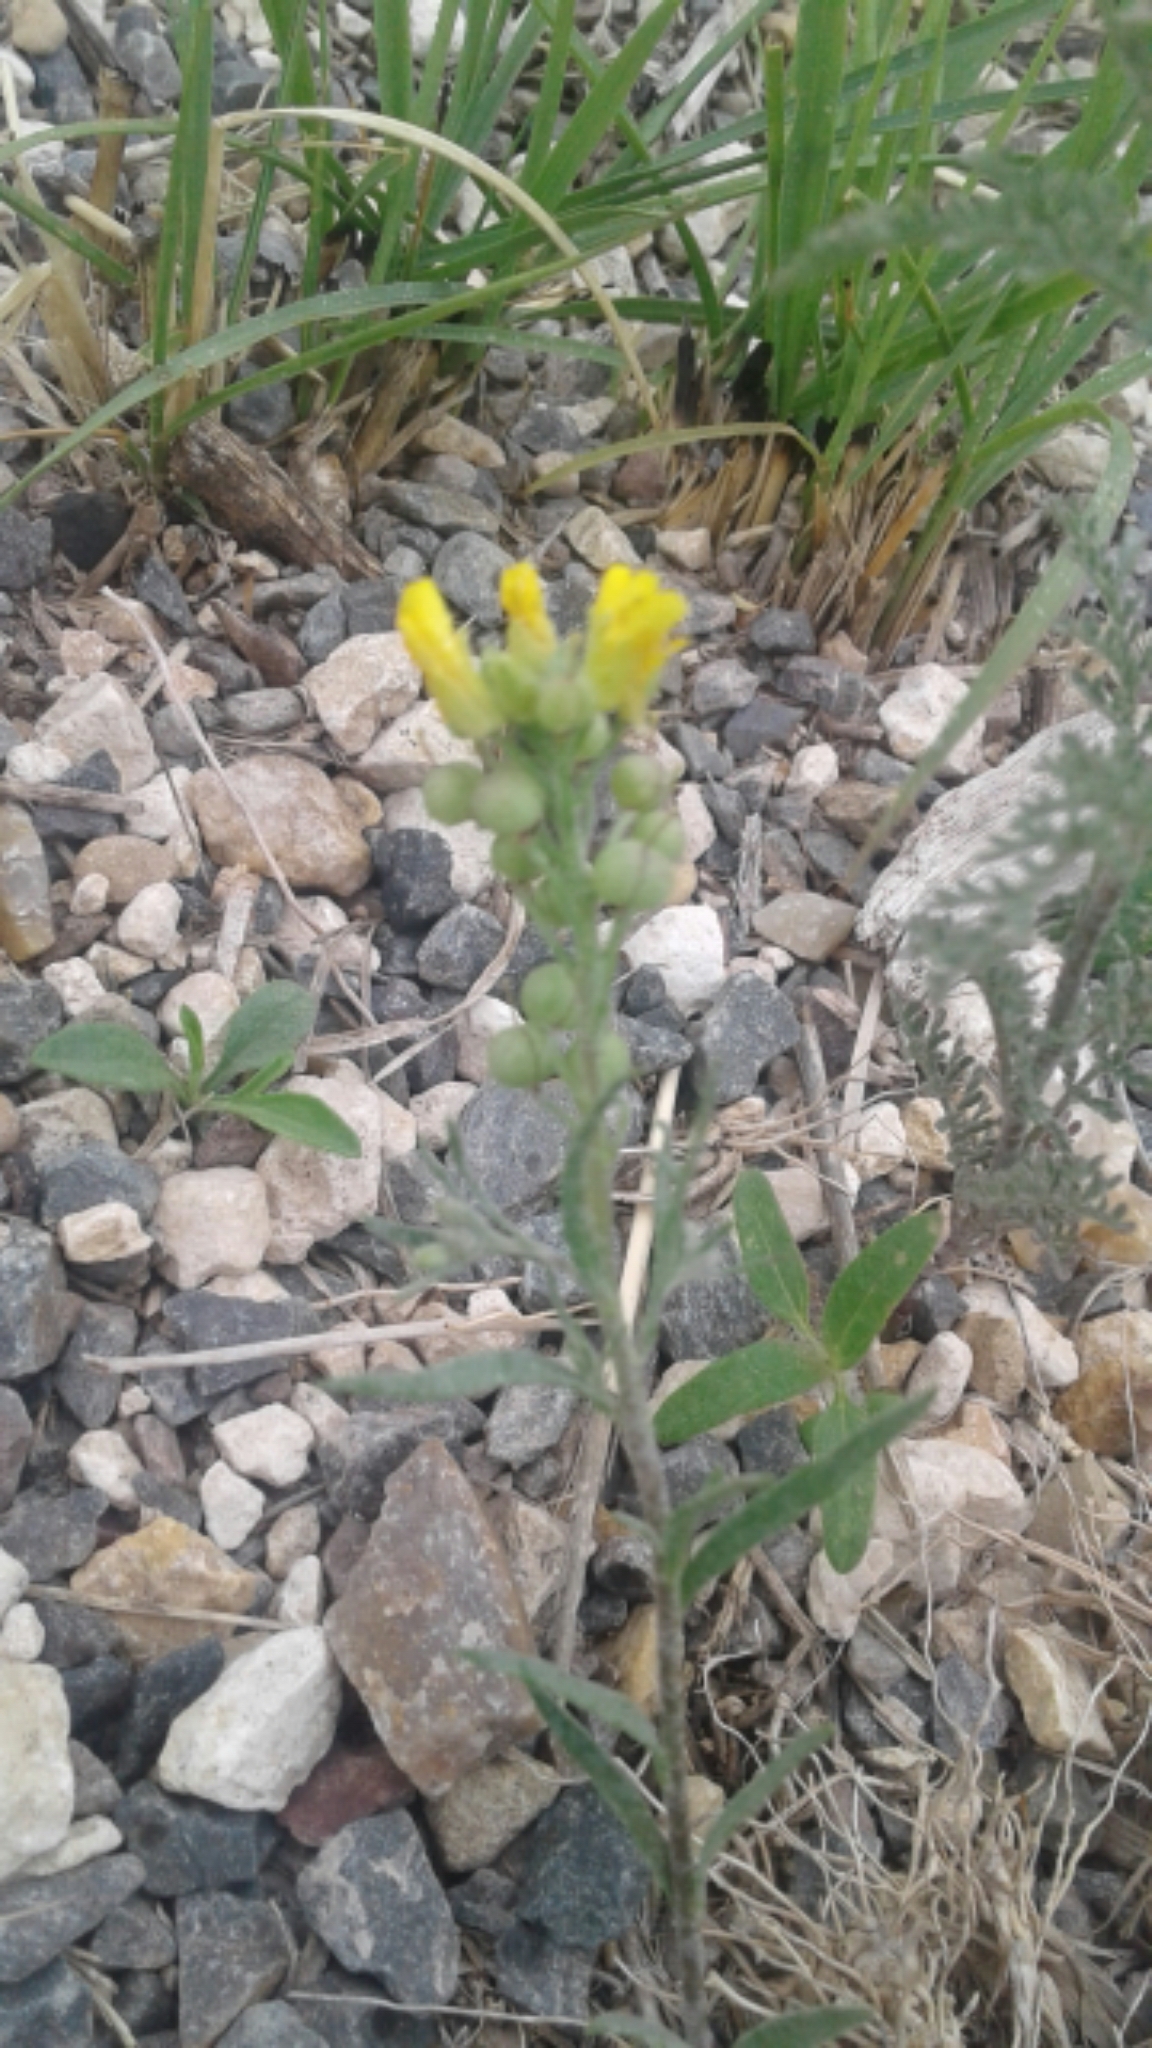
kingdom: Plantae
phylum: Tracheophyta
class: Magnoliopsida
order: Brassicales
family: Brassicaceae
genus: Physaria
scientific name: Physaria gordonii
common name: Gordon's bladderpod
